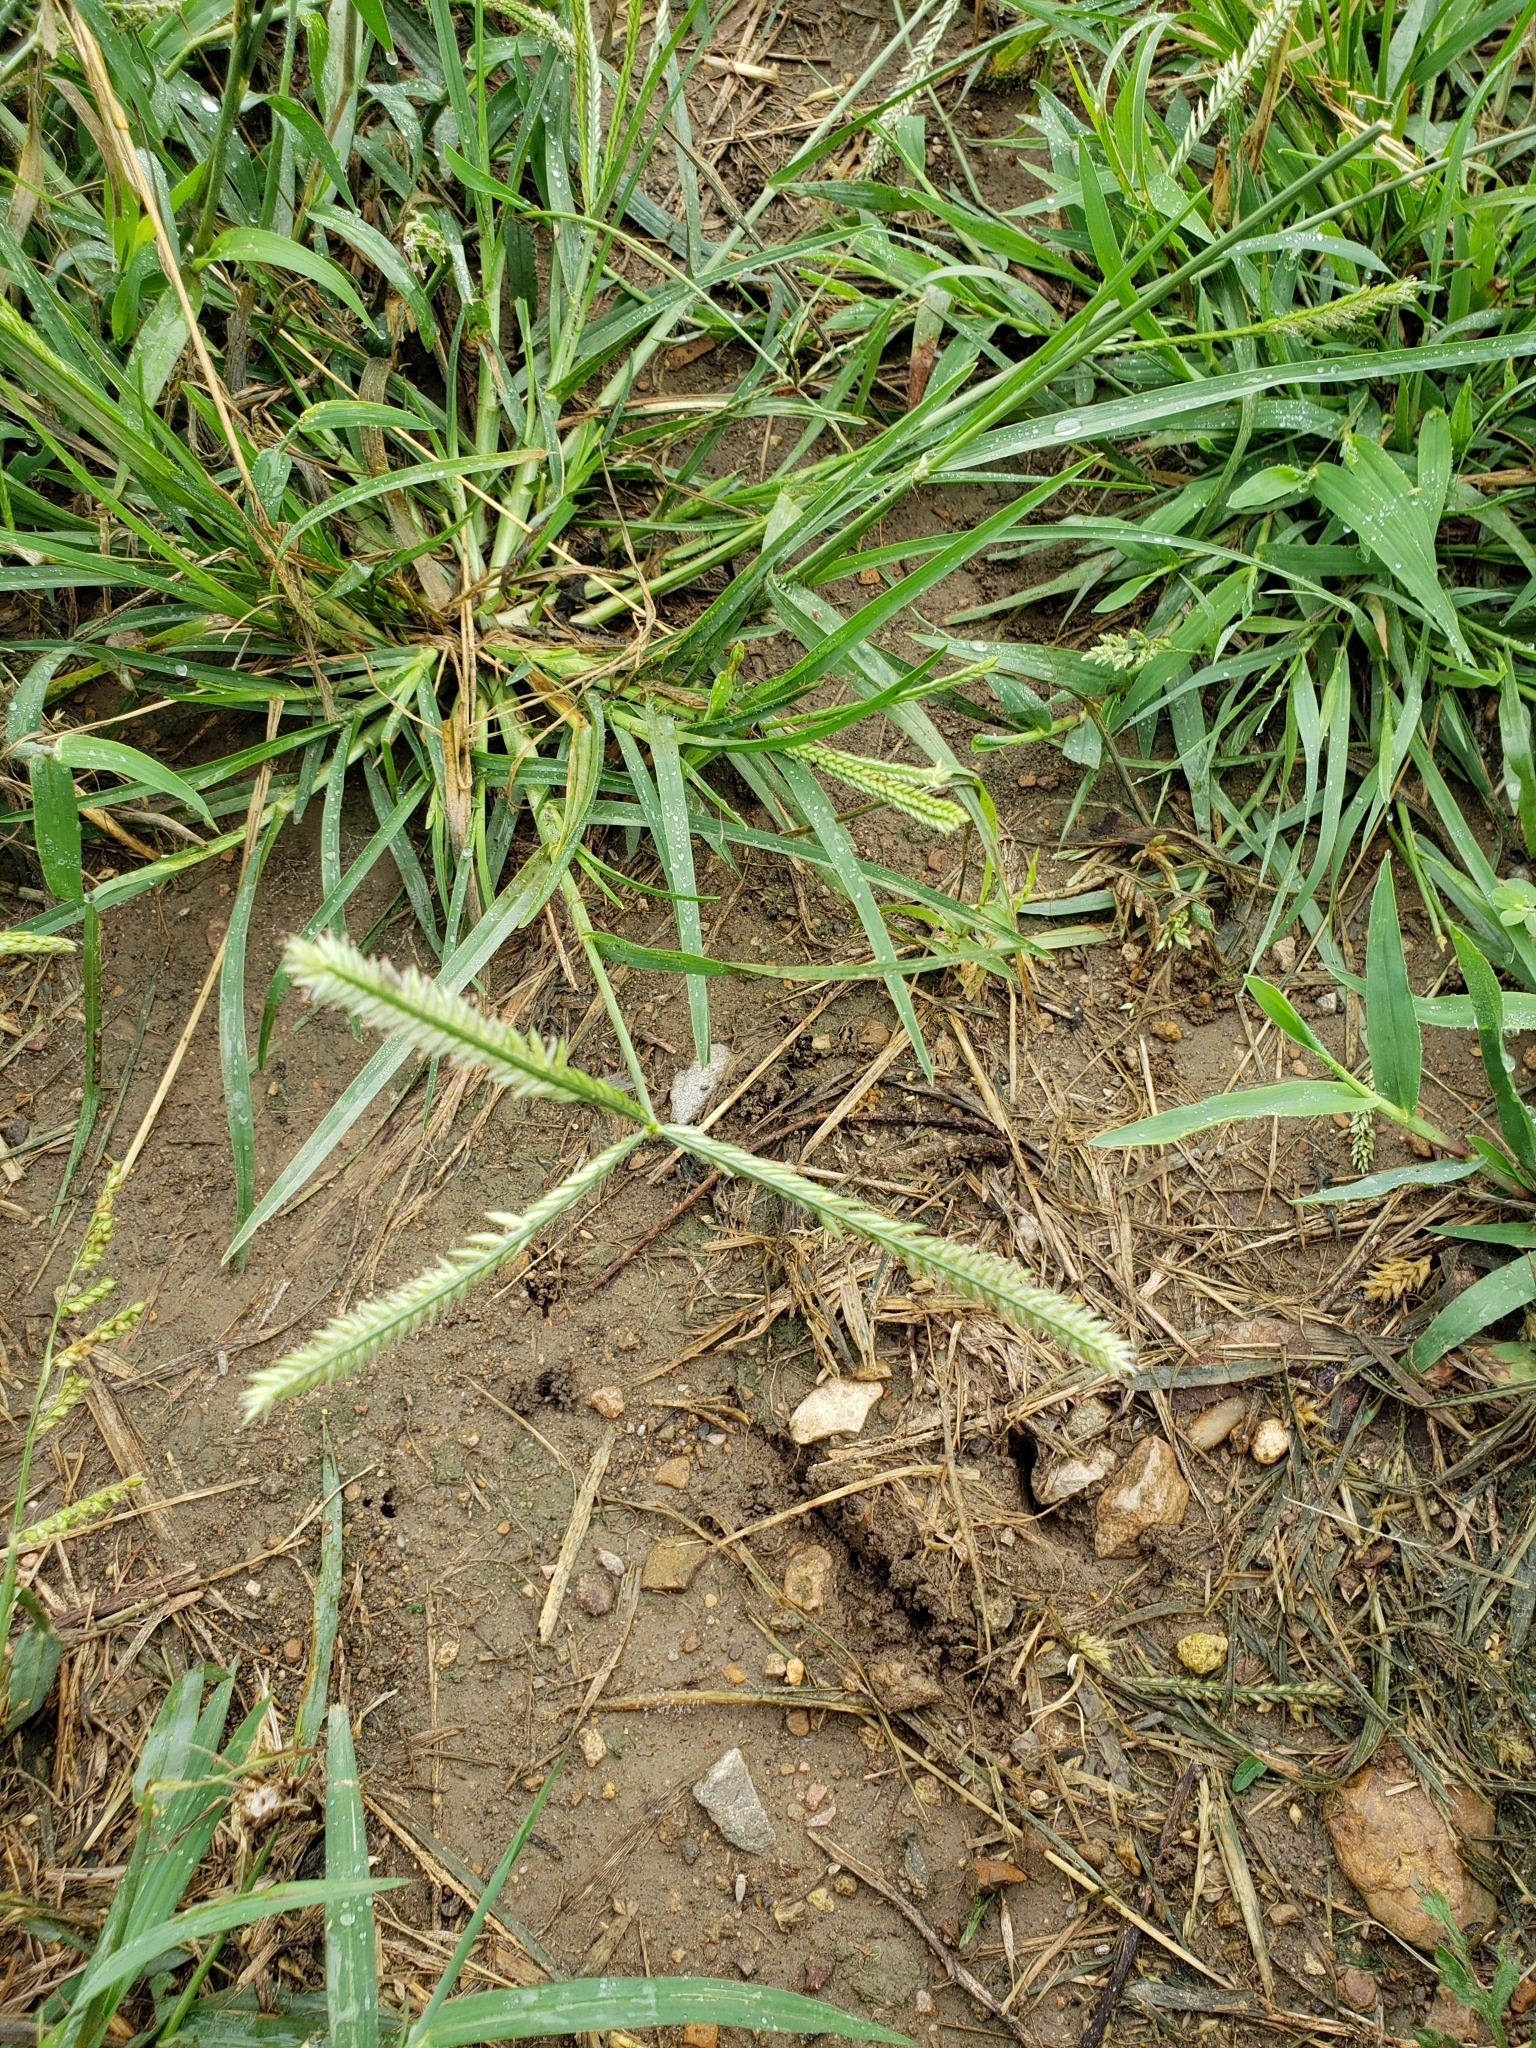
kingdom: Plantae
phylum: Tracheophyta
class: Liliopsida
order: Poales
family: Poaceae
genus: Eleusine
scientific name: Eleusine indica
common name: Yard-grass
